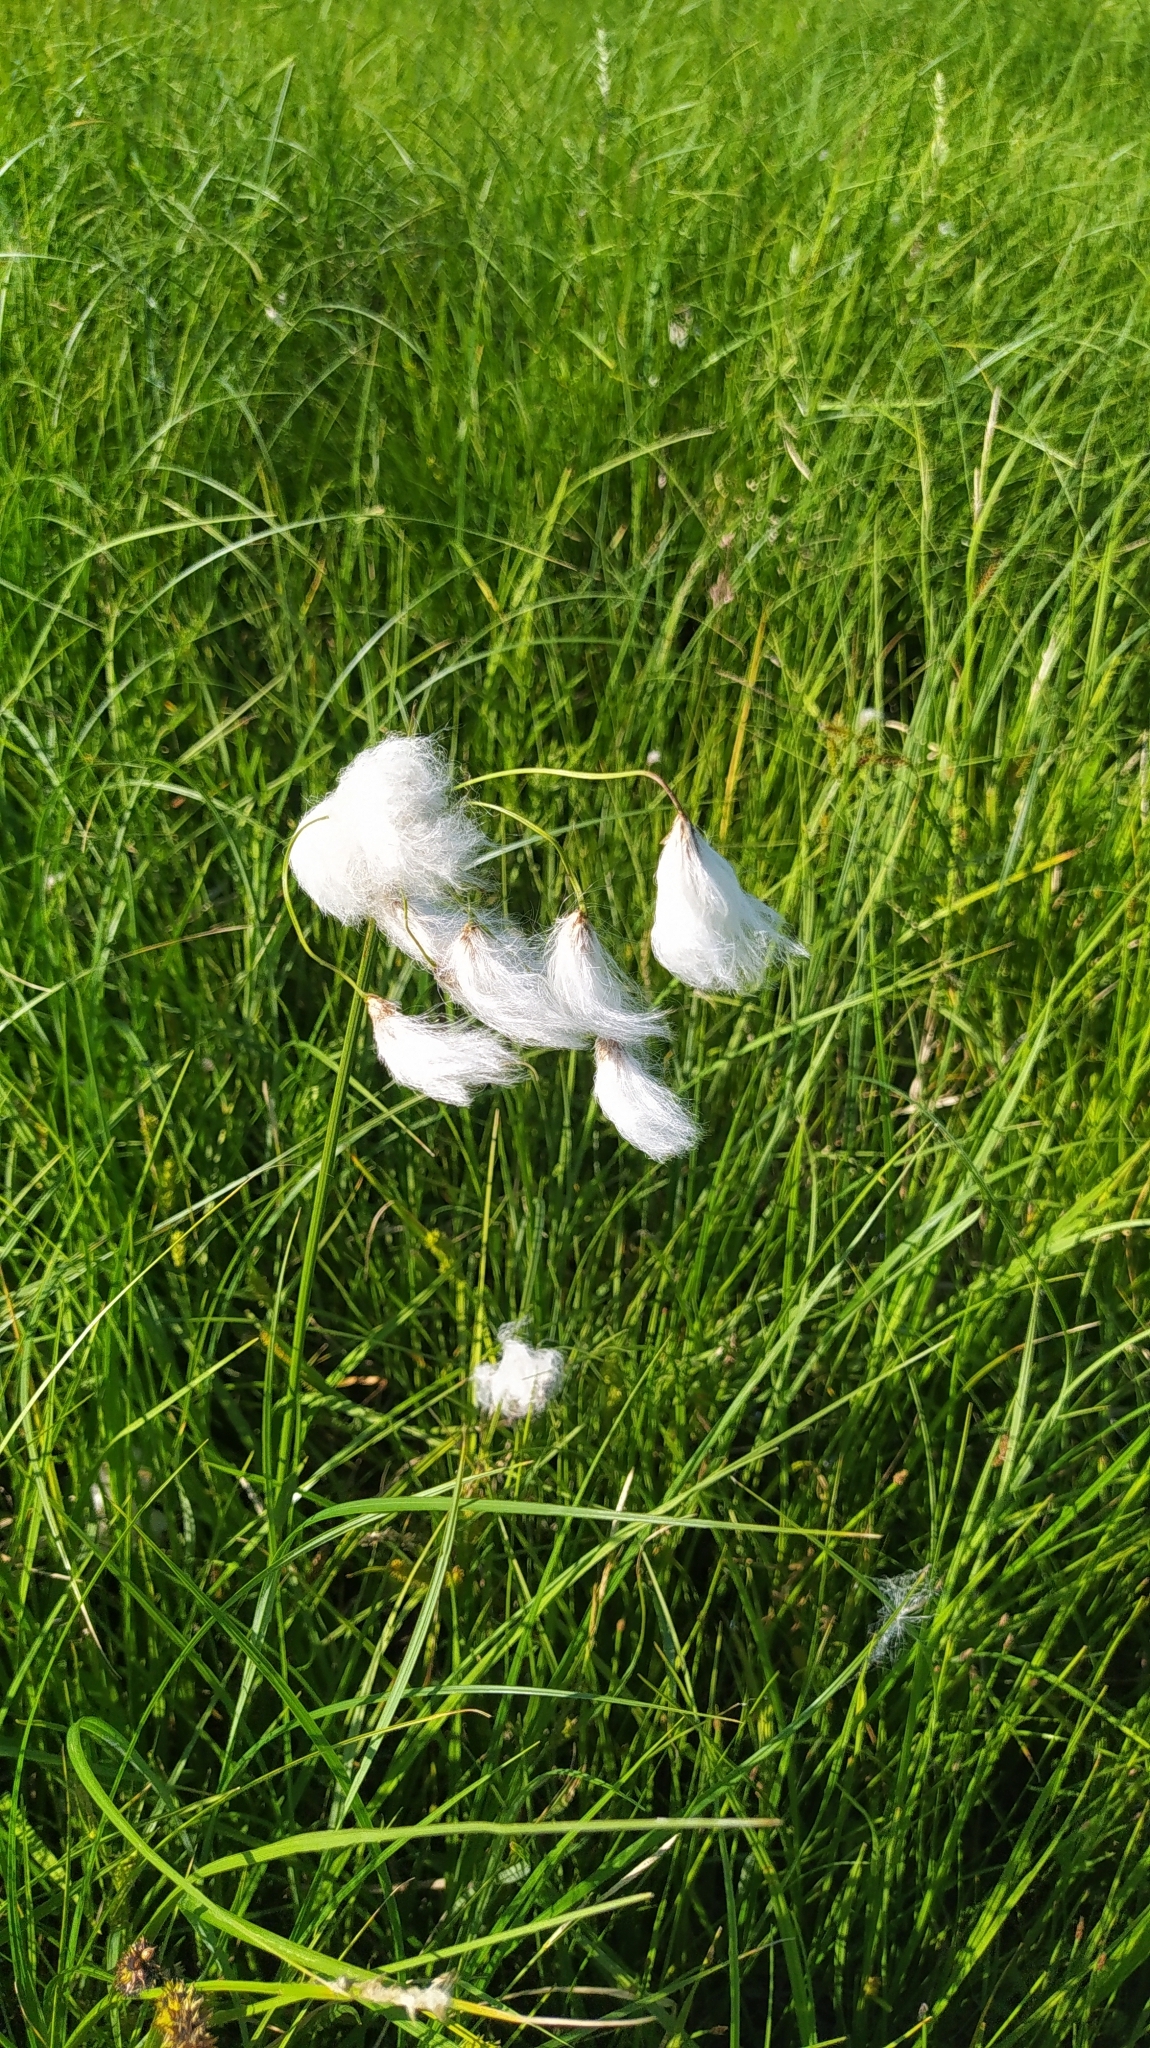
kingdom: Plantae
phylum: Tracheophyta
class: Liliopsida
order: Poales
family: Cyperaceae
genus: Eriophorum
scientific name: Eriophorum angustifolium
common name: Common cottongrass
